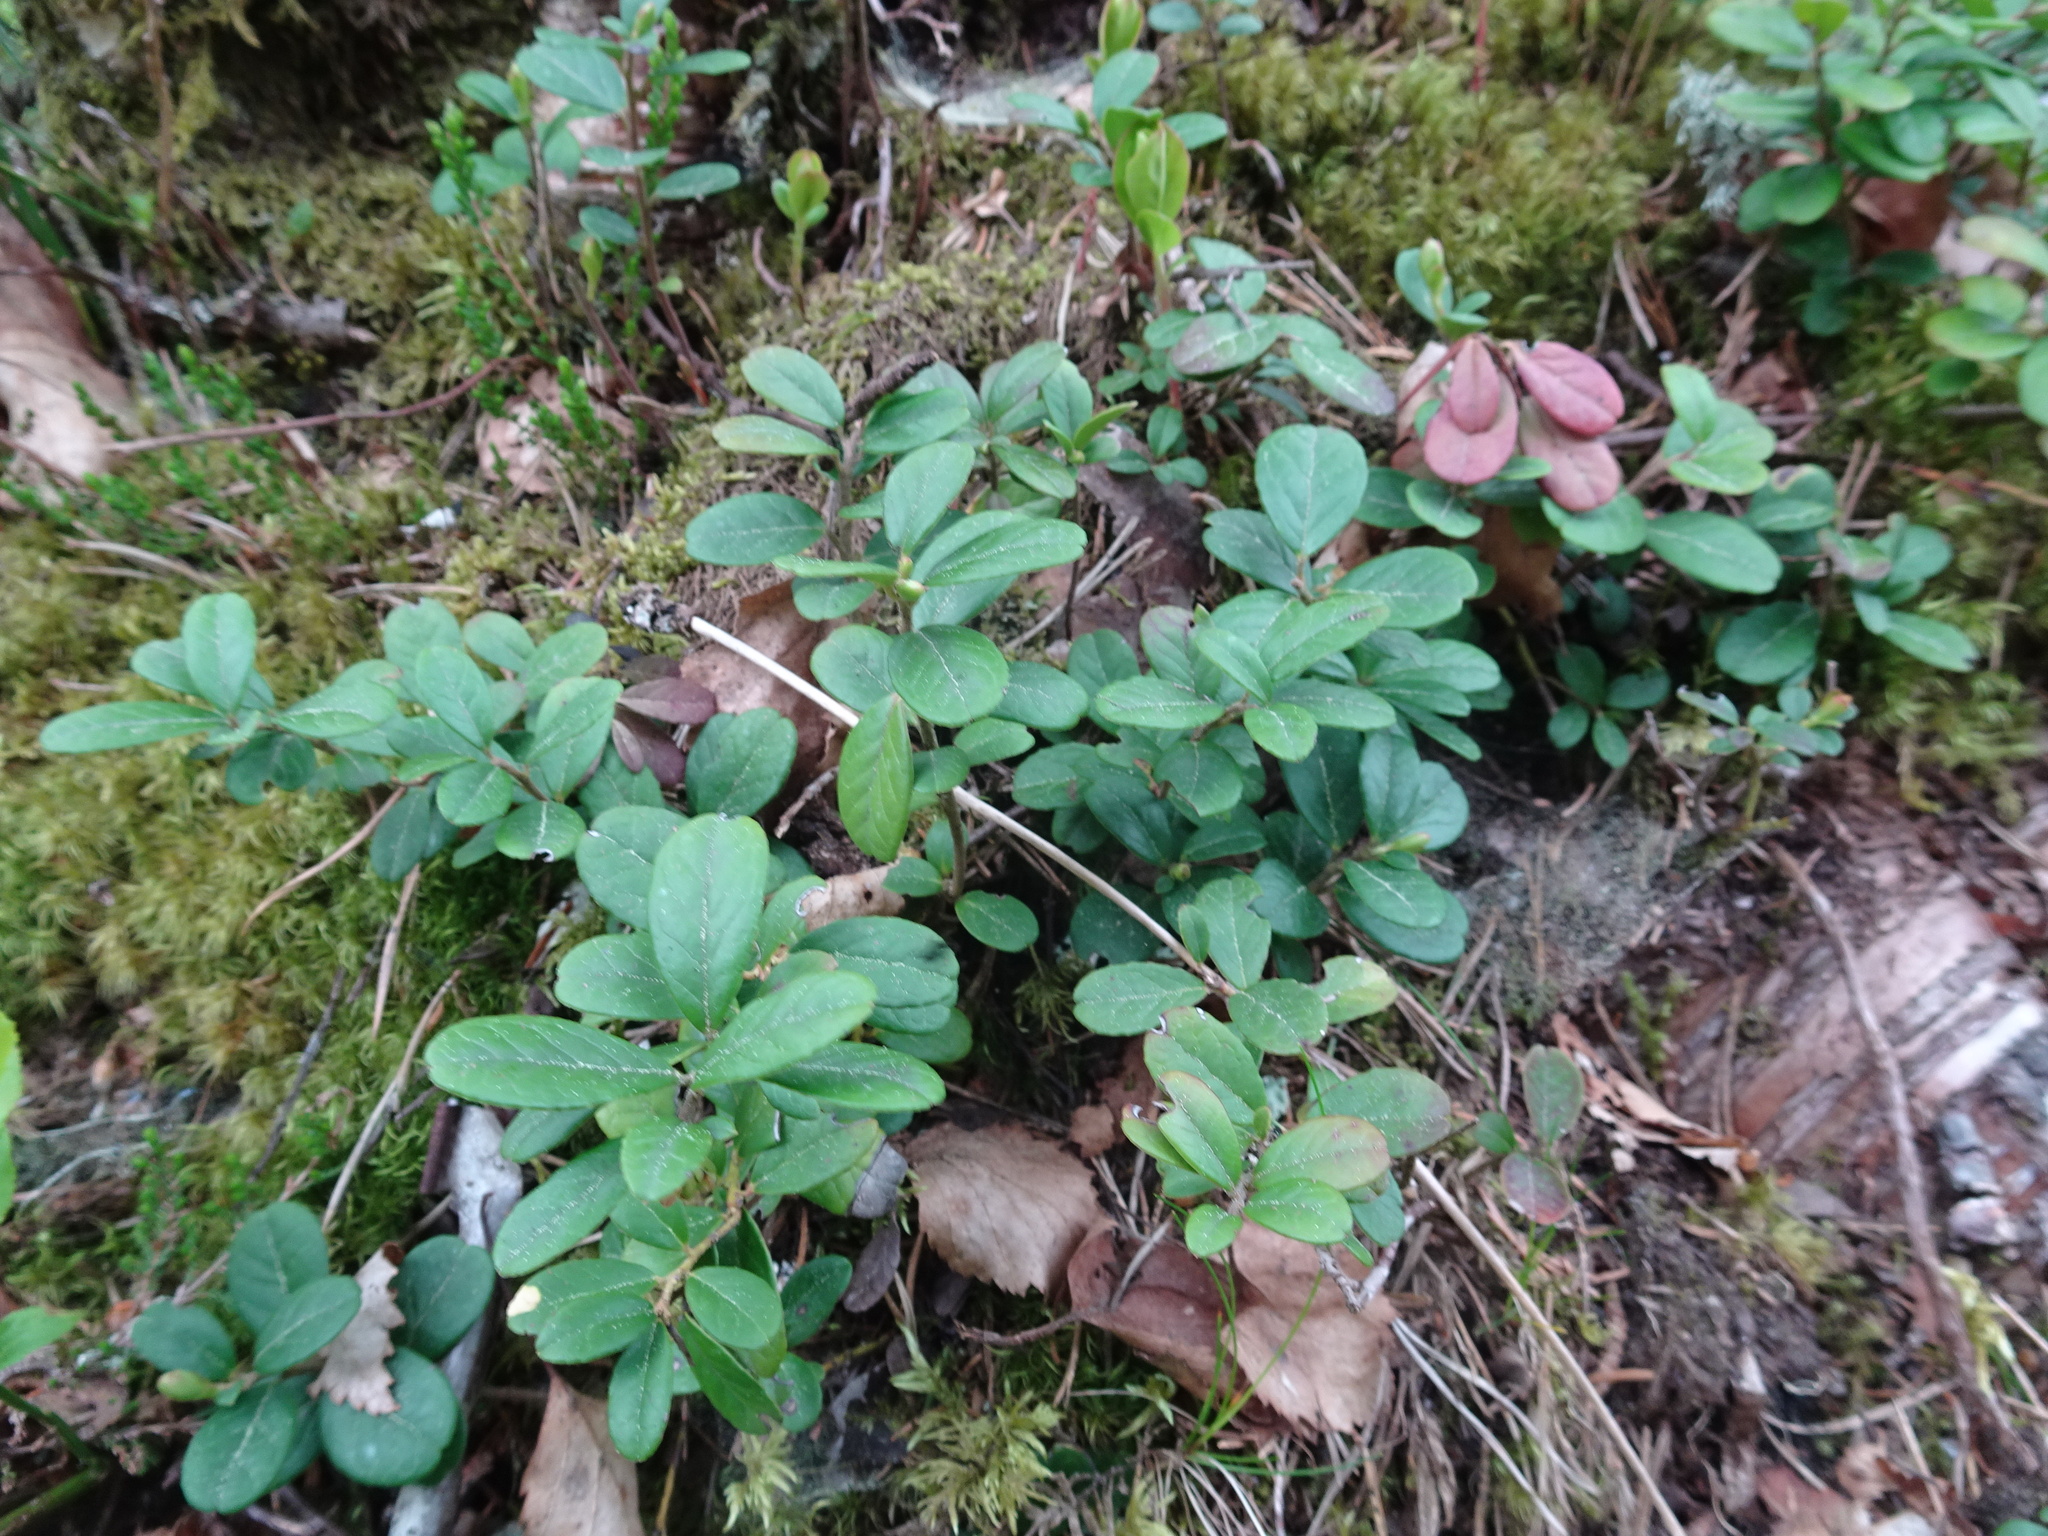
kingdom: Plantae
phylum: Tracheophyta
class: Magnoliopsida
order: Ericales
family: Ericaceae
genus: Vaccinium
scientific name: Vaccinium vitis-idaea
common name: Cowberry
